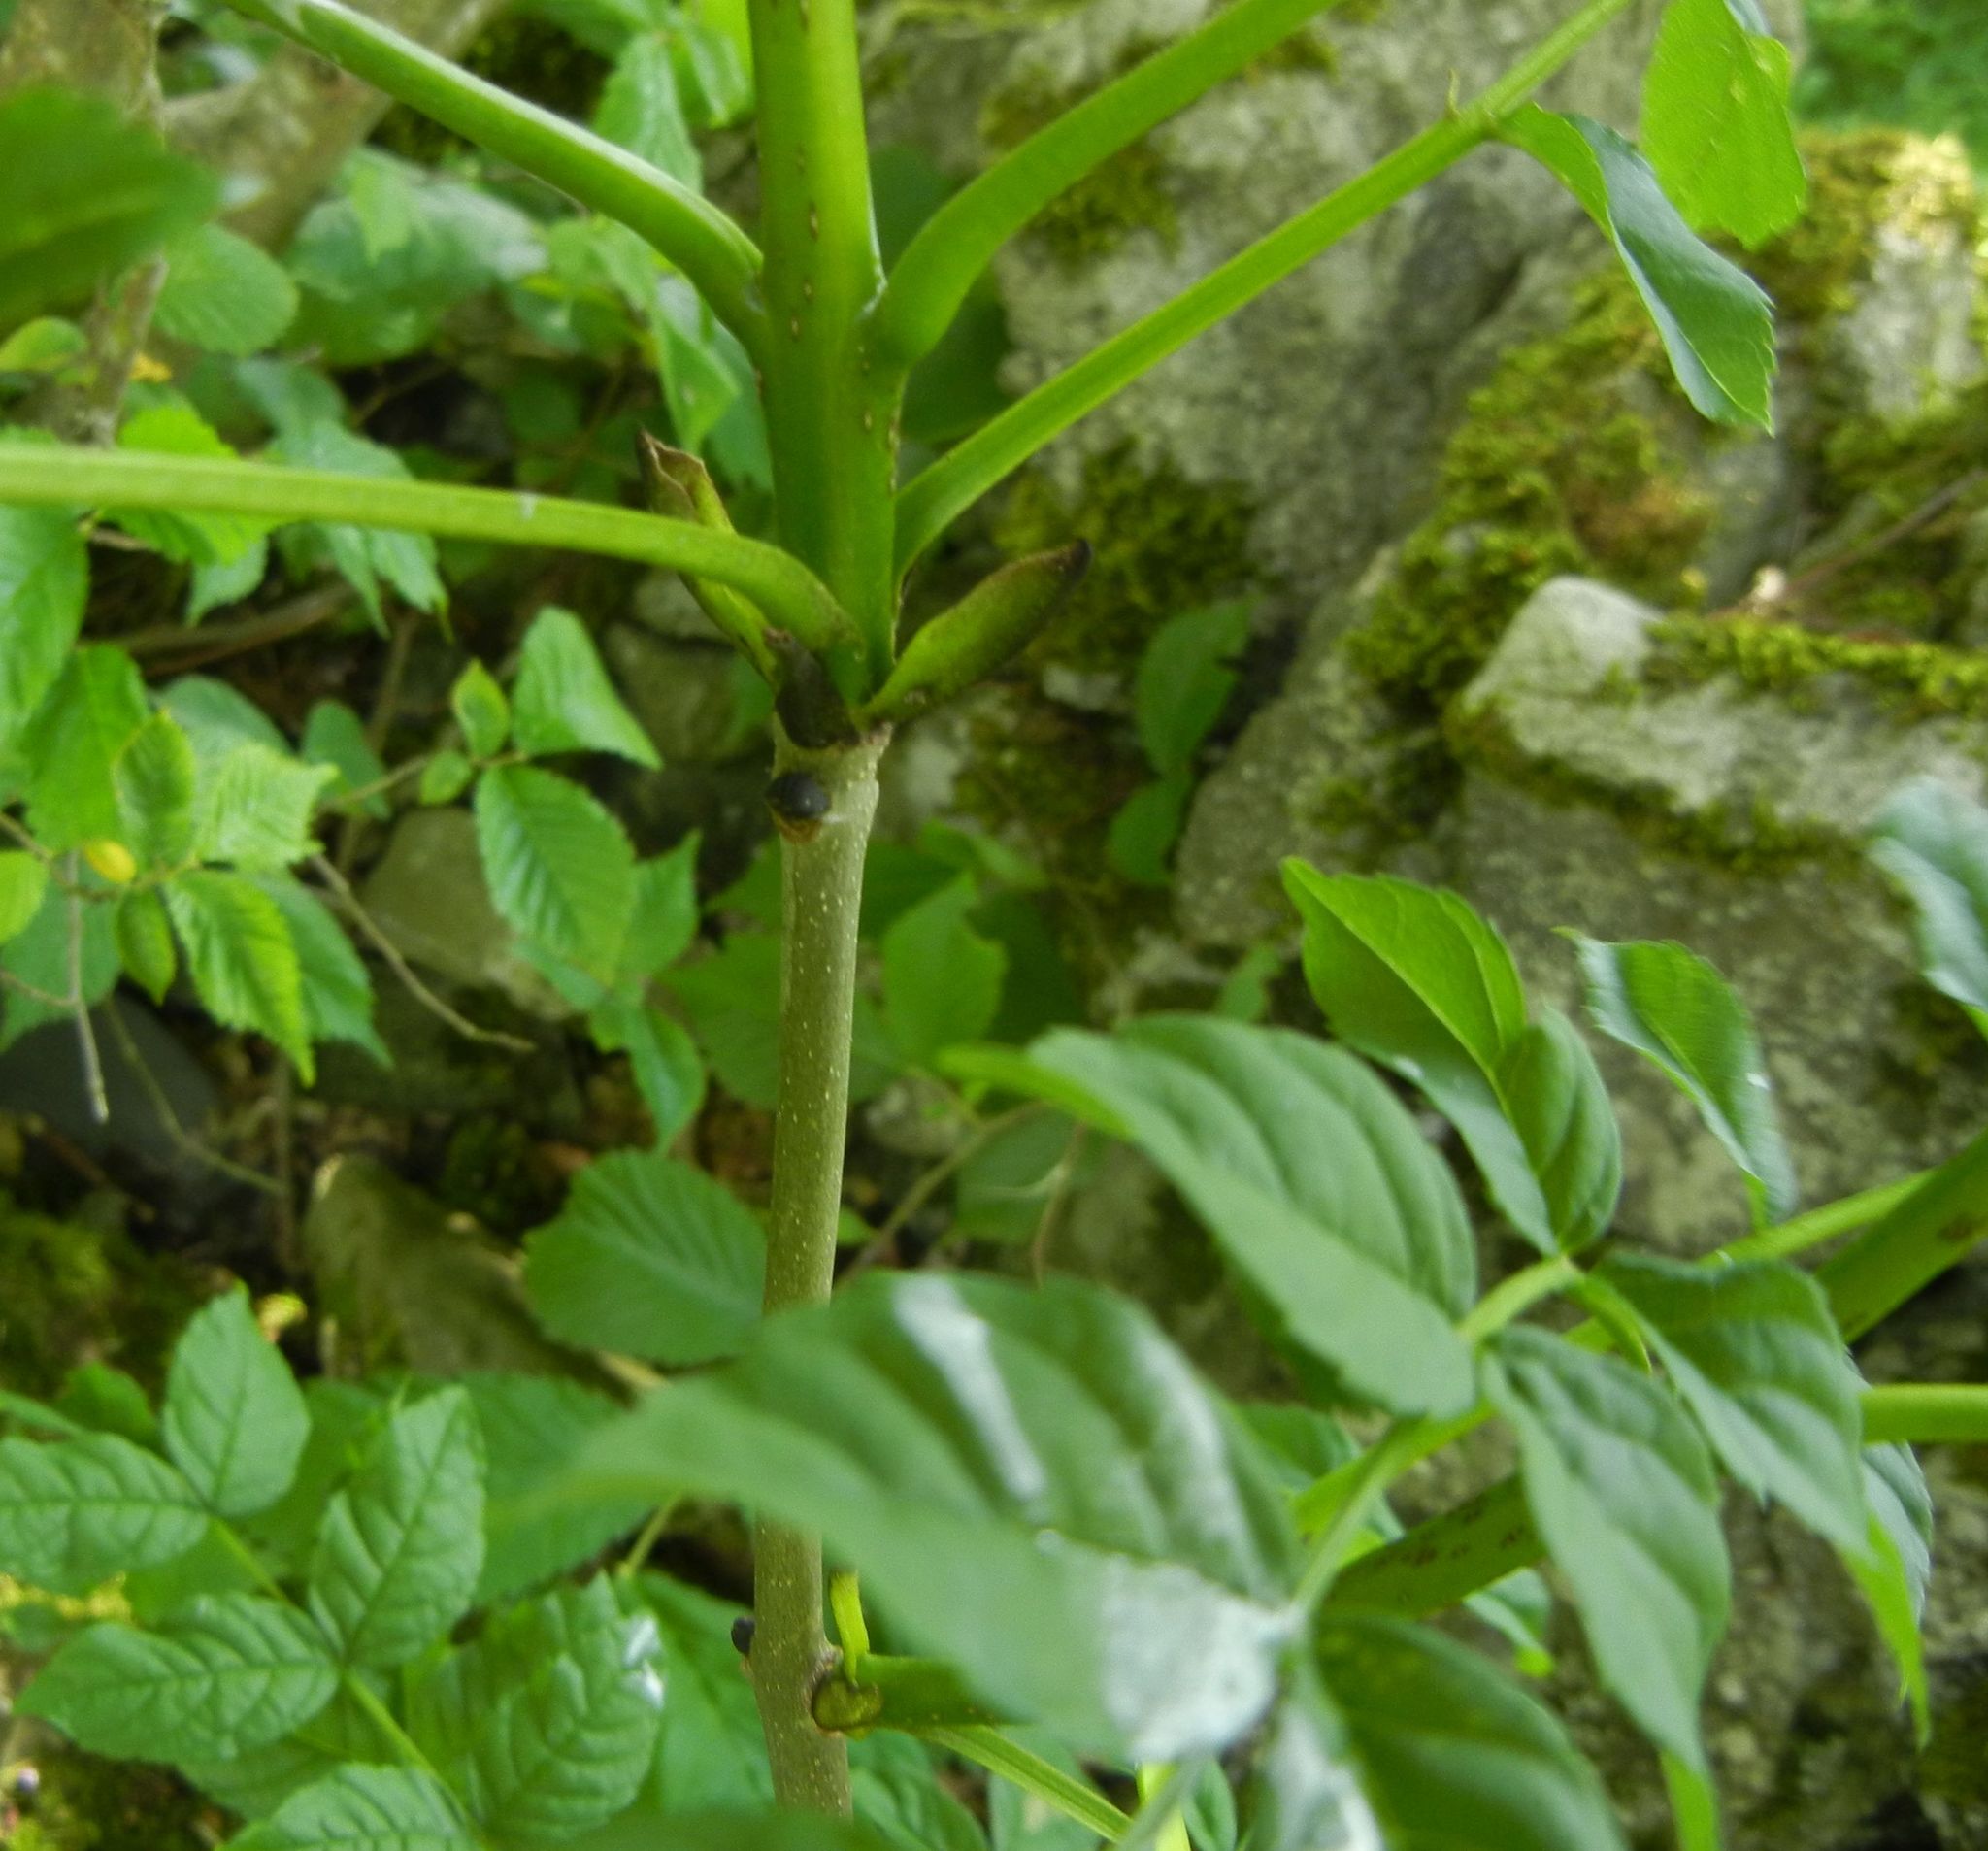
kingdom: Plantae
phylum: Tracheophyta
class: Magnoliopsida
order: Lamiales
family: Oleaceae
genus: Fraxinus
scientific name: Fraxinus excelsior
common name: European ash
